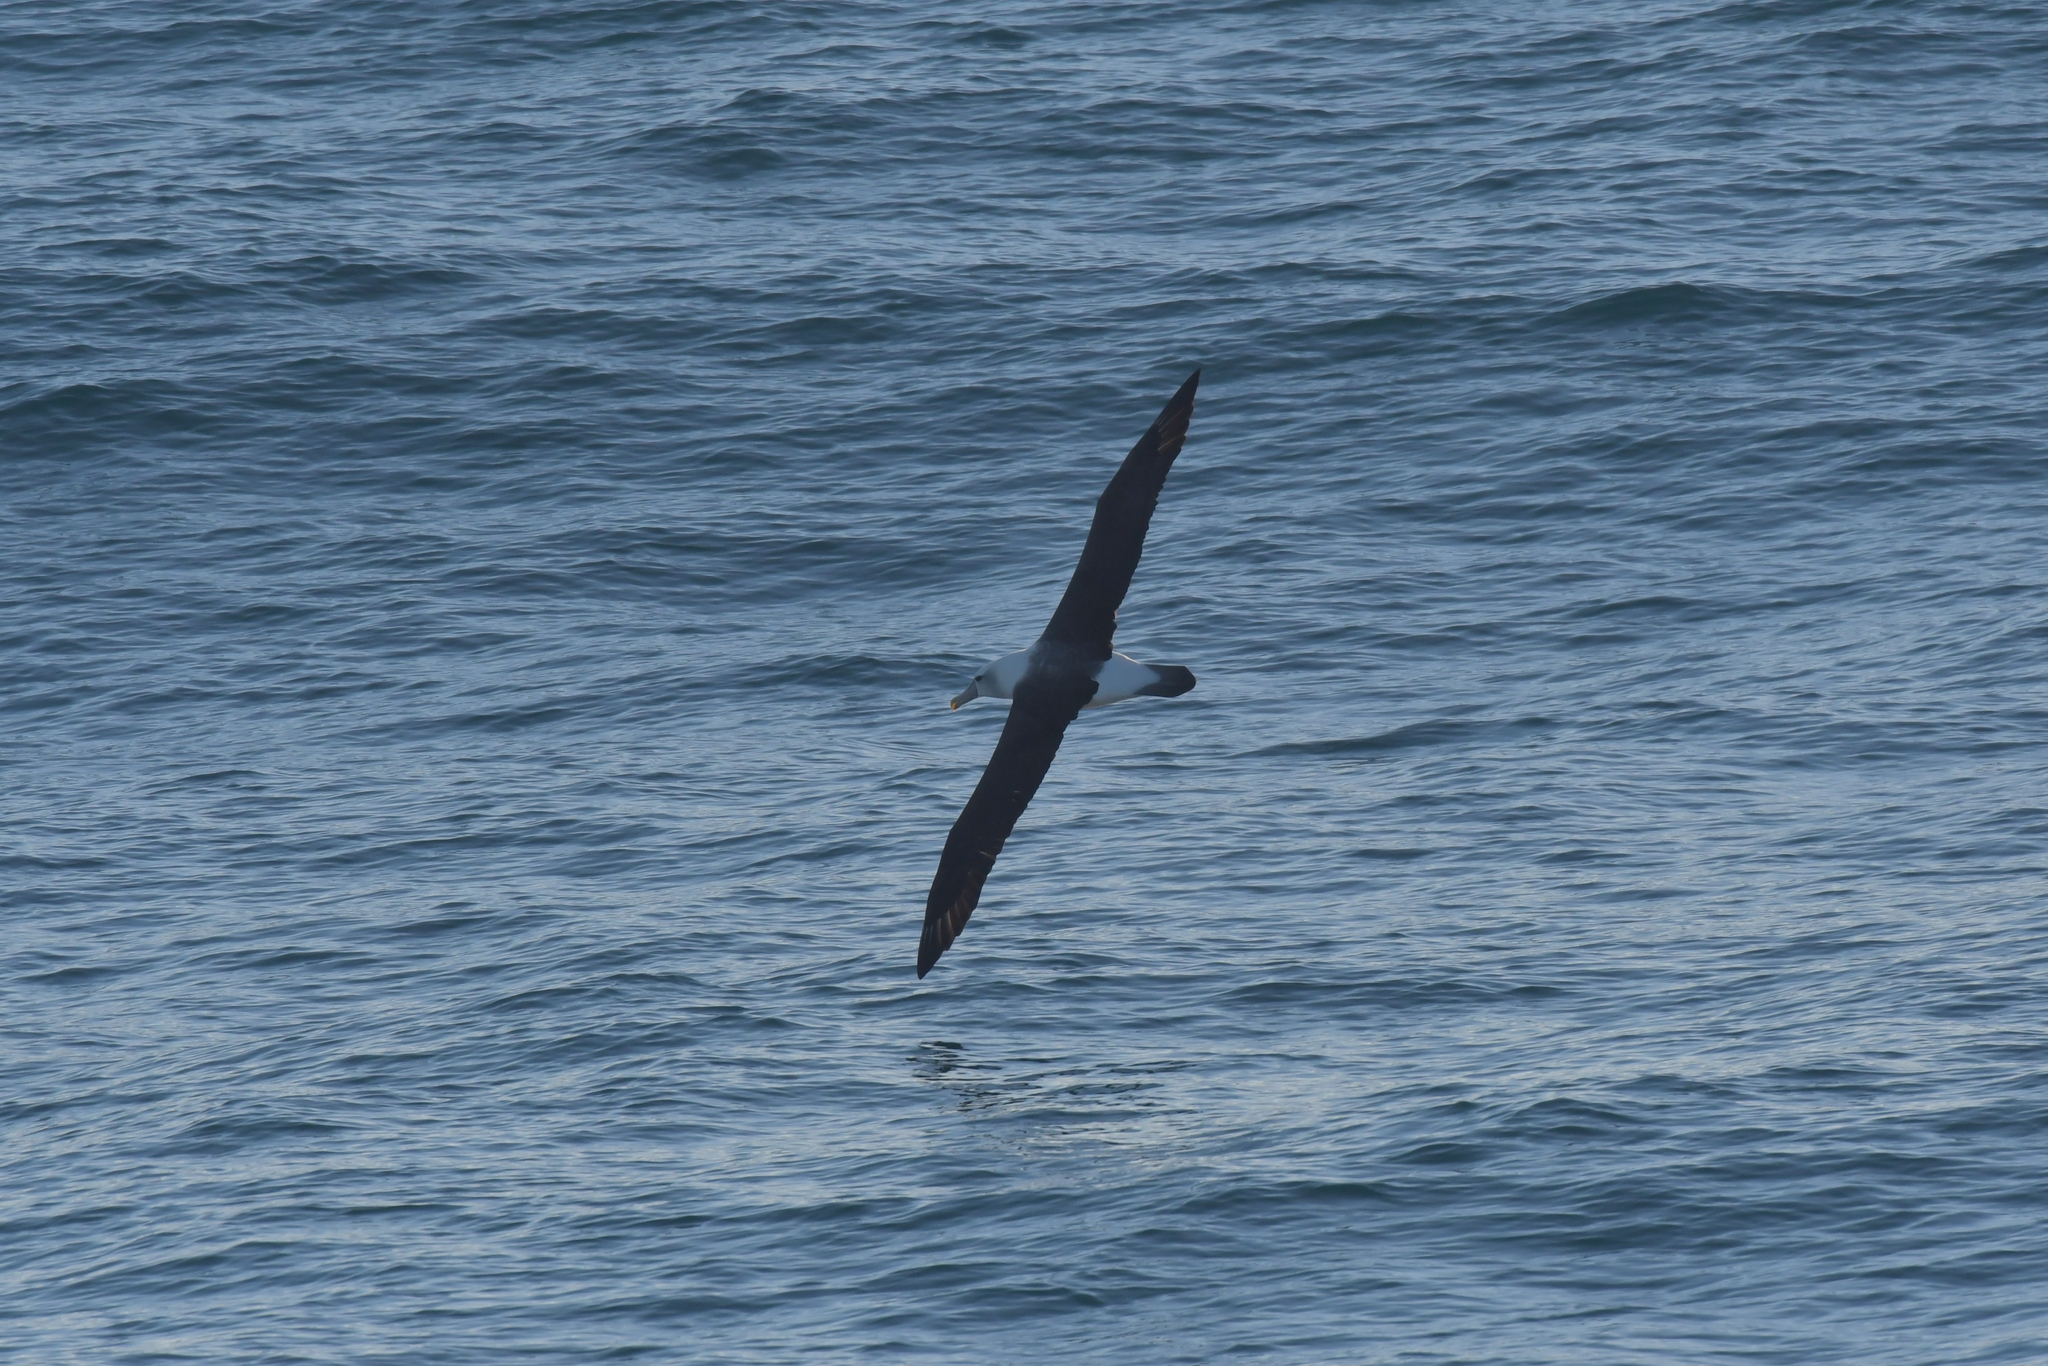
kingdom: Animalia
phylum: Chordata
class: Aves
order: Procellariiformes
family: Diomedeidae
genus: Thalassarche
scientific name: Thalassarche cauta
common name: Shy albatross
